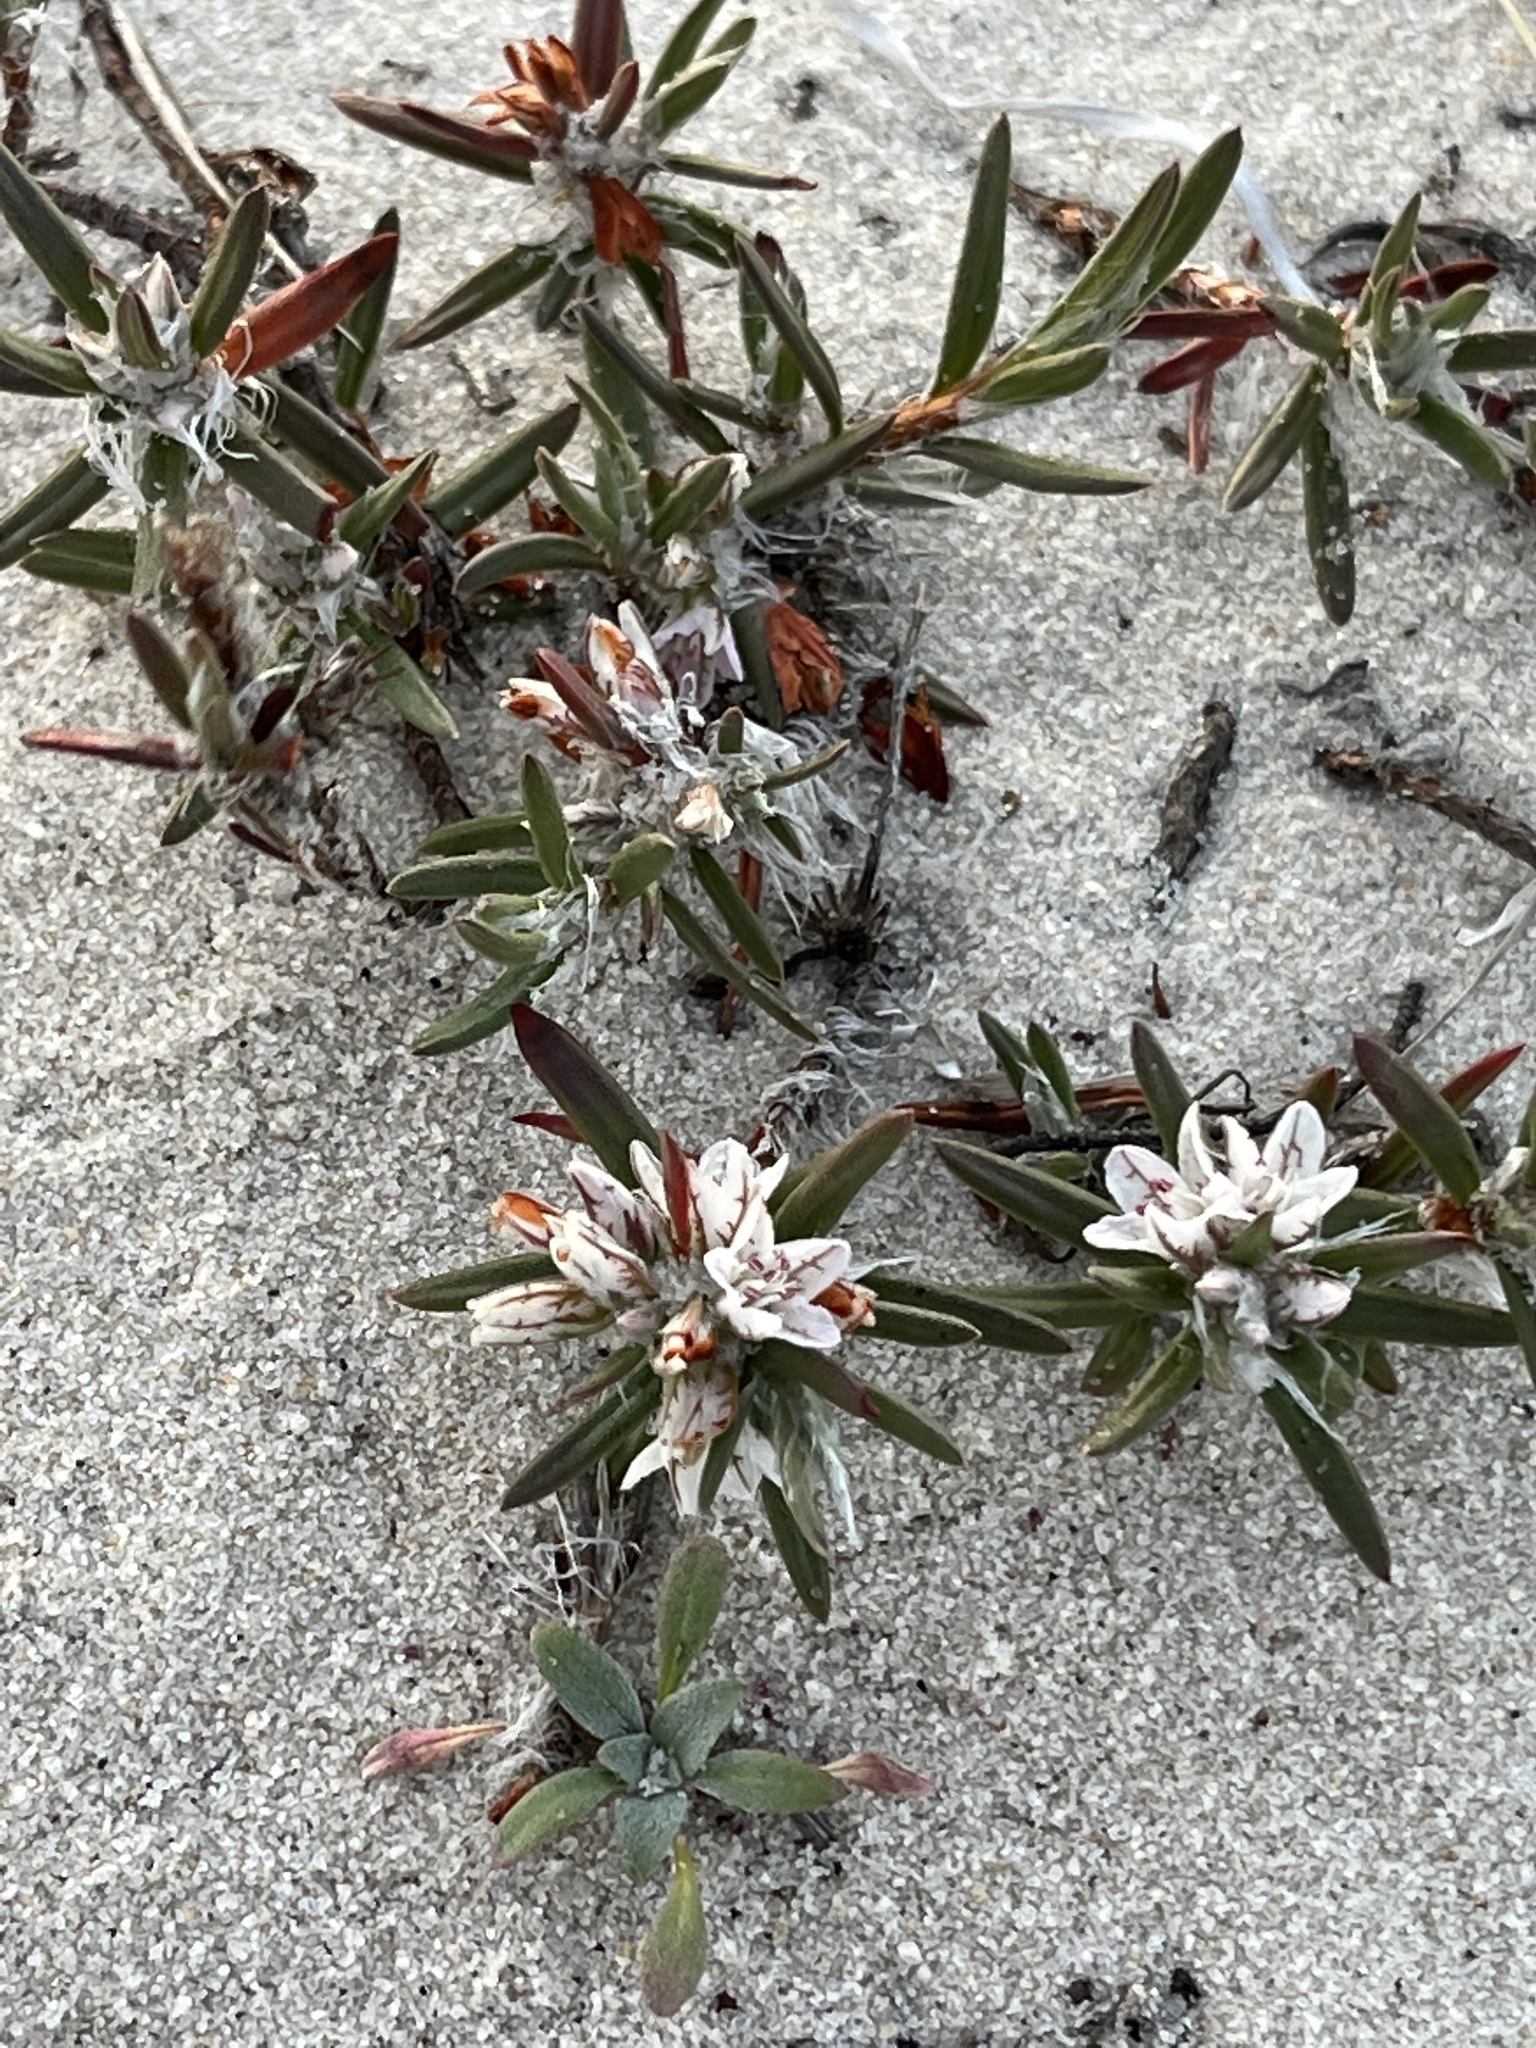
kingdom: Plantae
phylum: Tracheophyta
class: Magnoliopsida
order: Caryophyllales
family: Polygonaceae
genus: Polygonum
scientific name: Polygonum paronychia
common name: Dune knotweed
